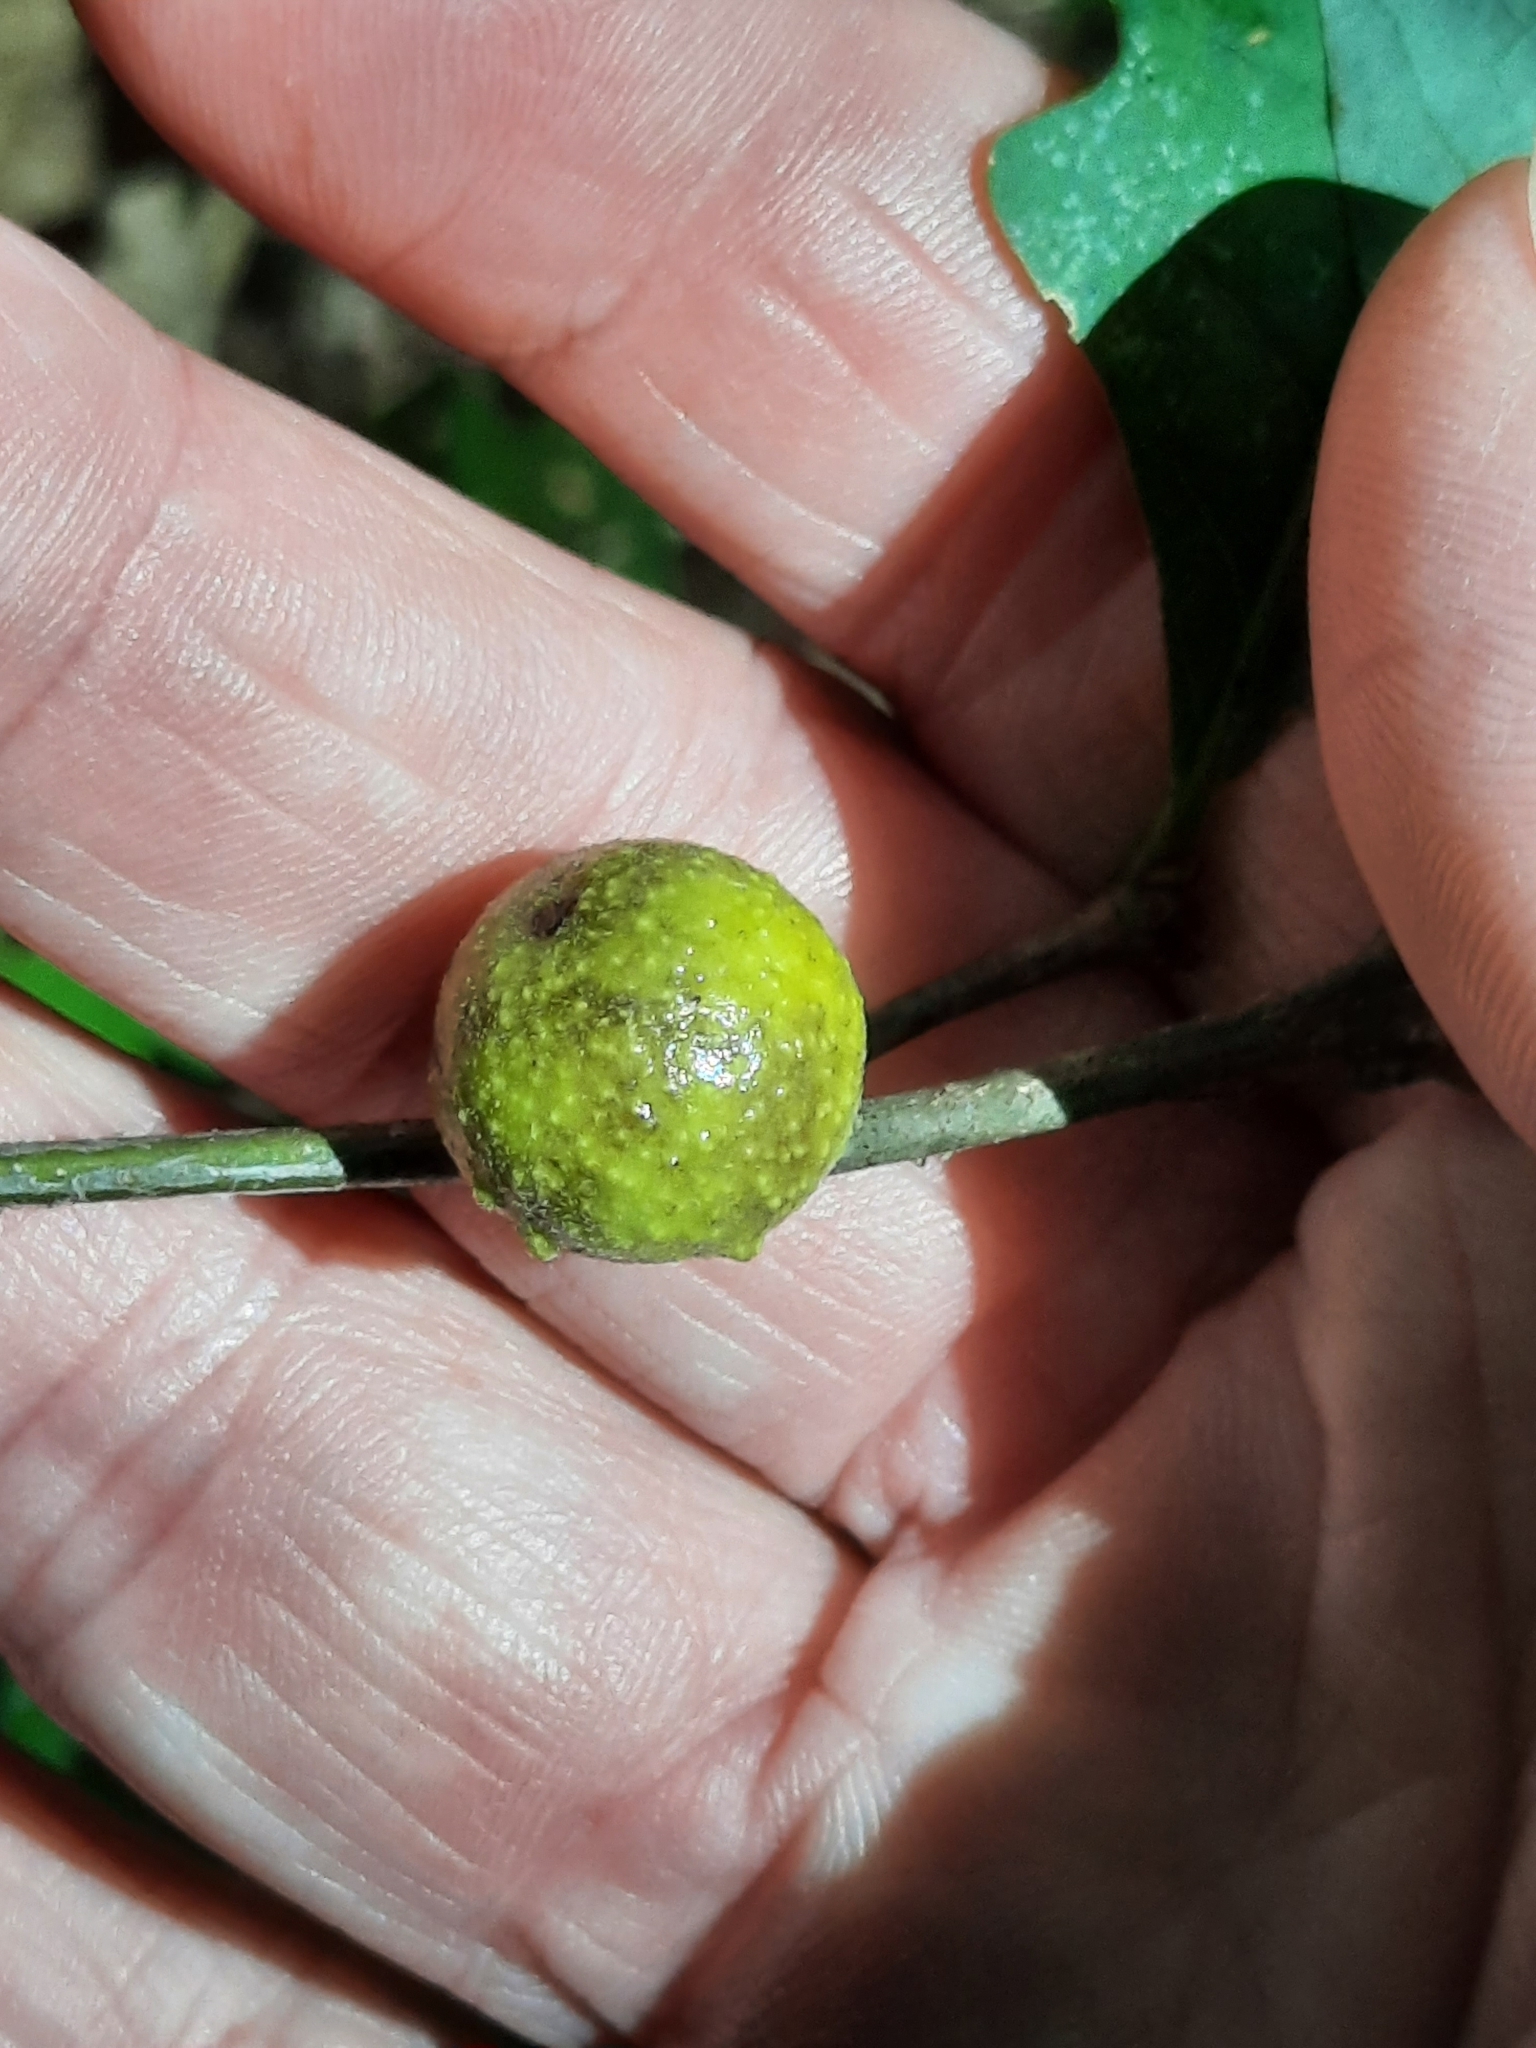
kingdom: Animalia
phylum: Arthropoda
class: Insecta
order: Hymenoptera
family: Cynipidae
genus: Disholcaspis
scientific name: Disholcaspis quercusglobulus
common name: Round bullet gall wasp
